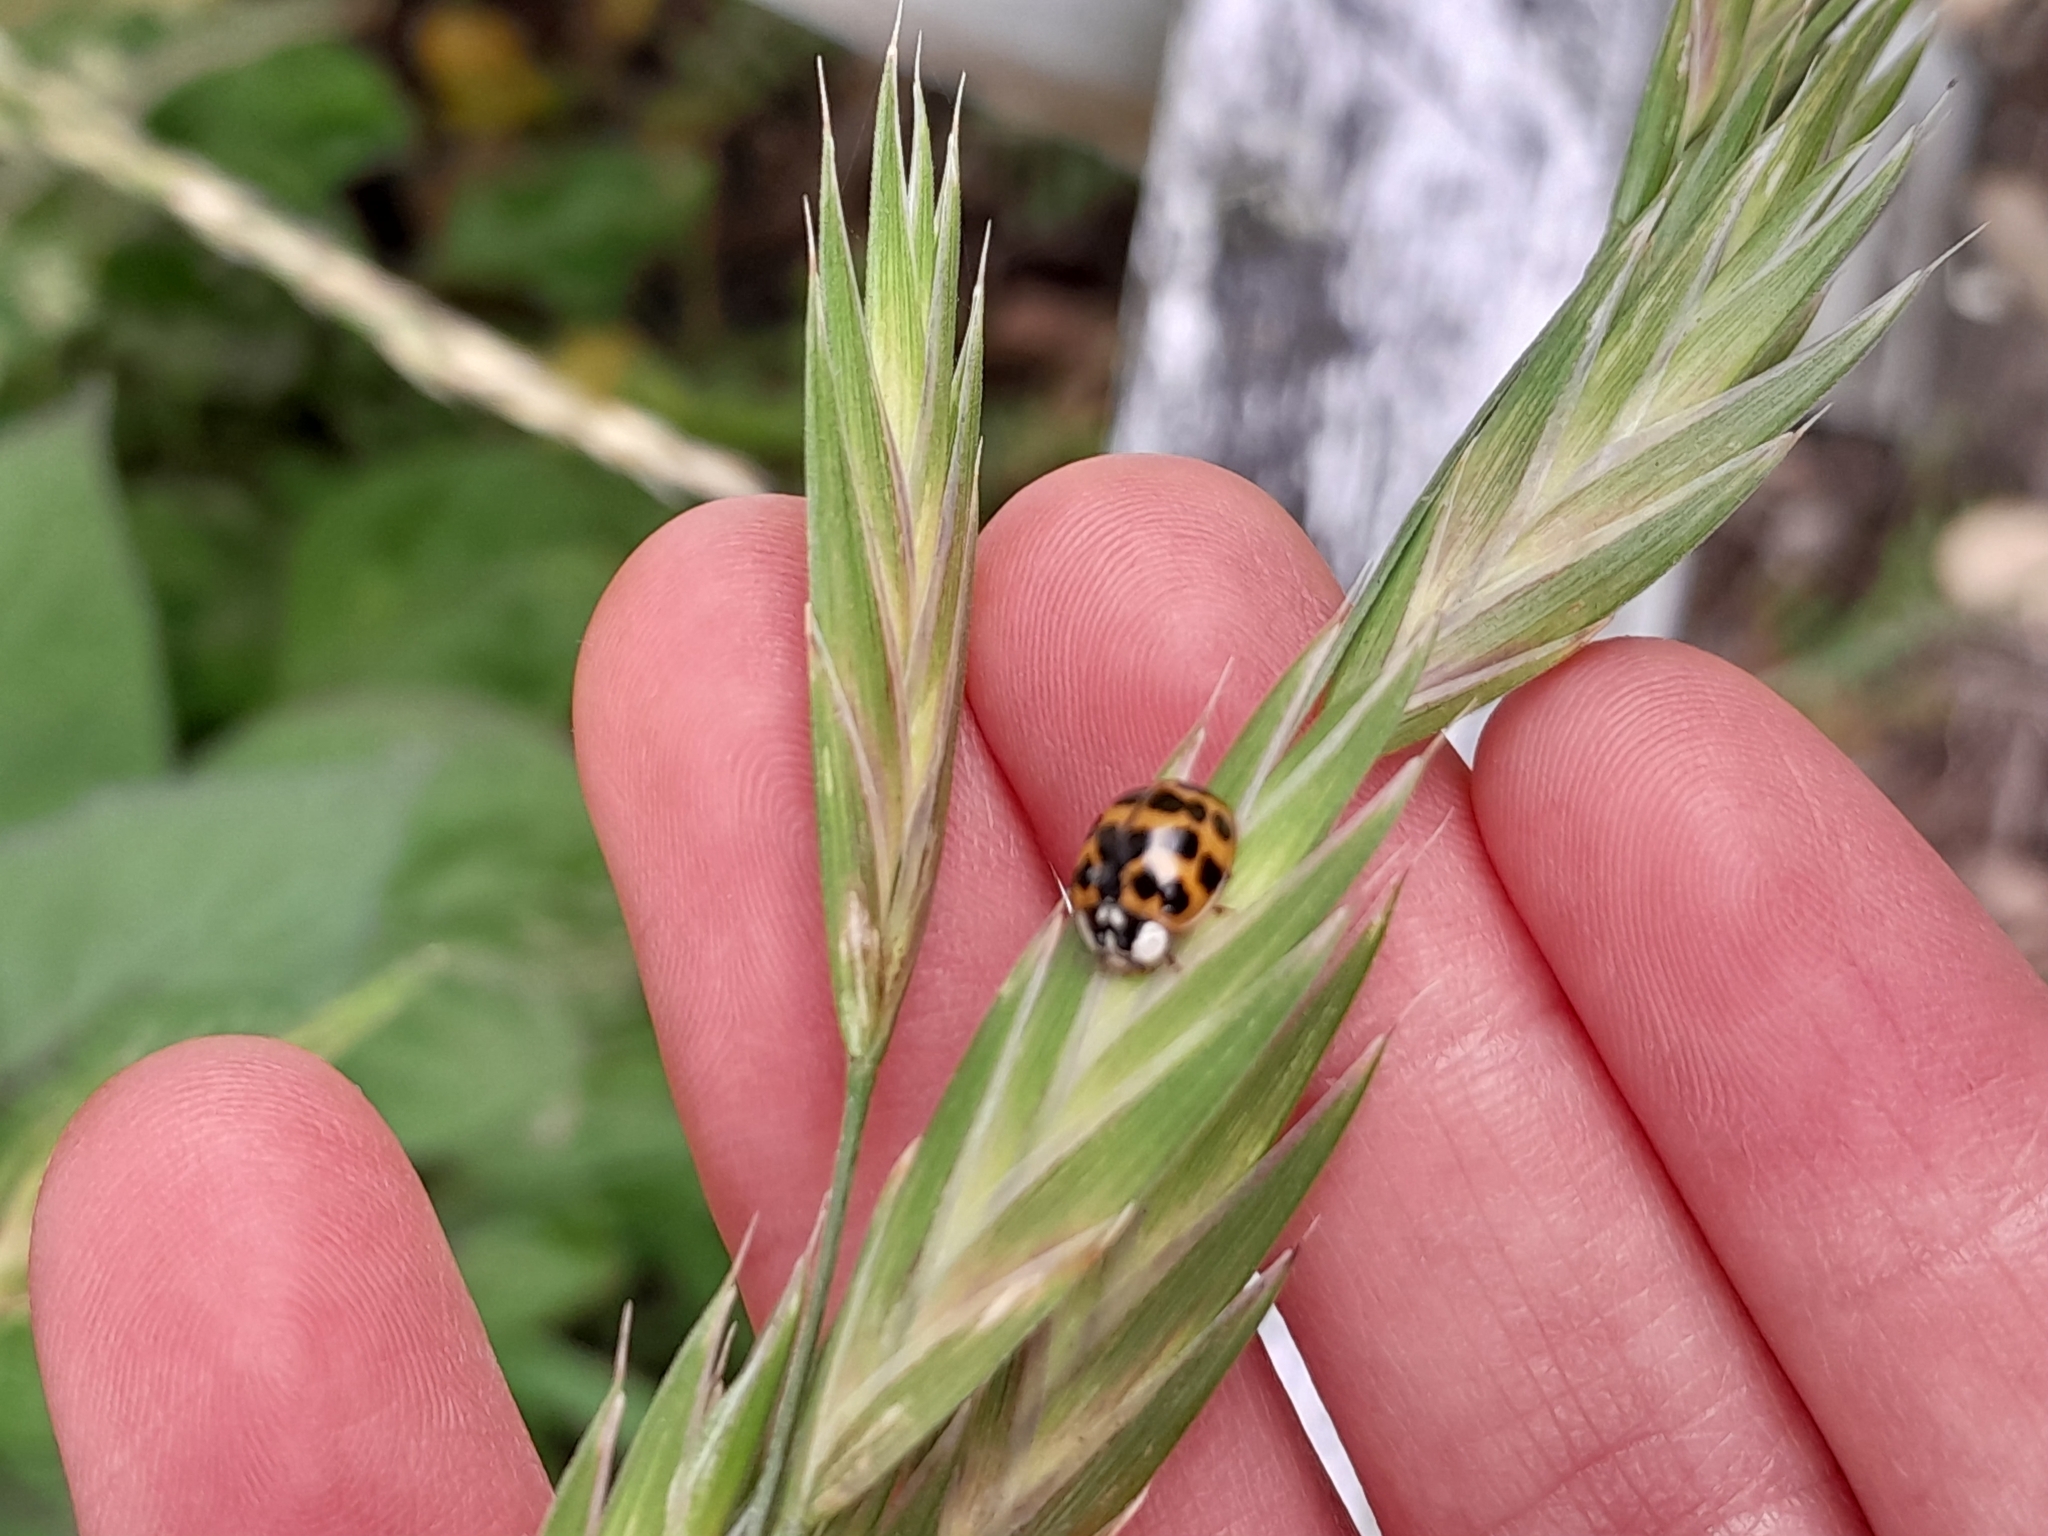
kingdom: Animalia
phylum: Arthropoda
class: Insecta
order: Coleoptera
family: Coccinellidae
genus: Harmonia
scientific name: Harmonia axyridis
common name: Harlequin ladybird
